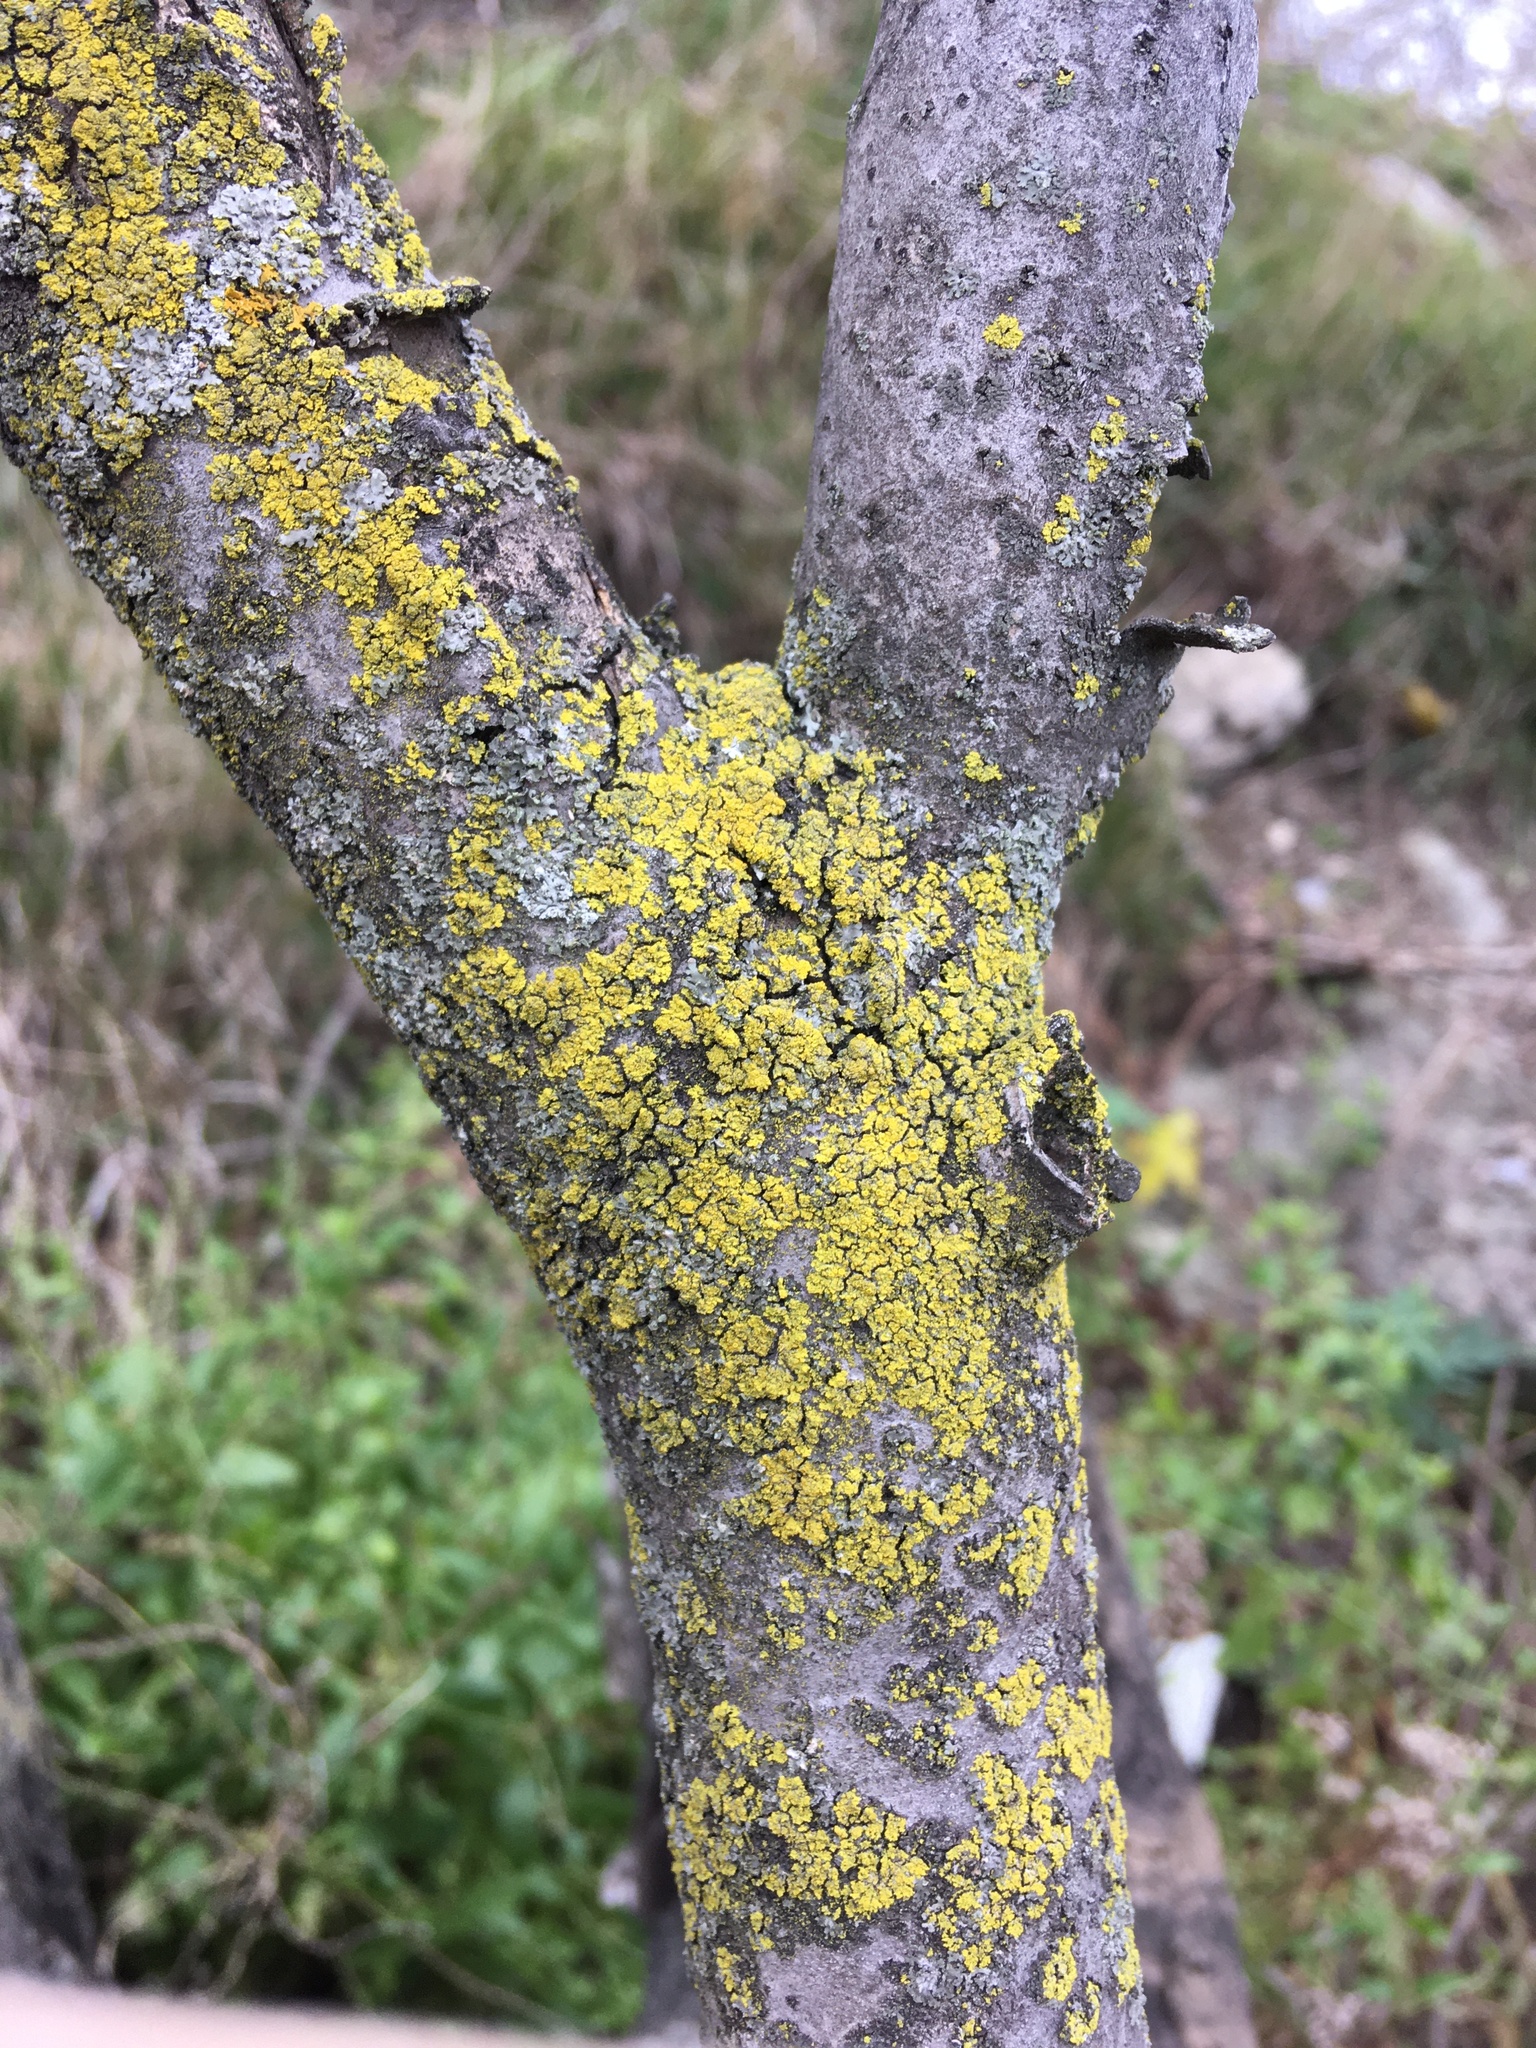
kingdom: Fungi
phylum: Ascomycota
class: Candelariomycetes
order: Candelariales
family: Candelariaceae
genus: Candelaria
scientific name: Candelaria concolor
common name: Candleflame lichen
